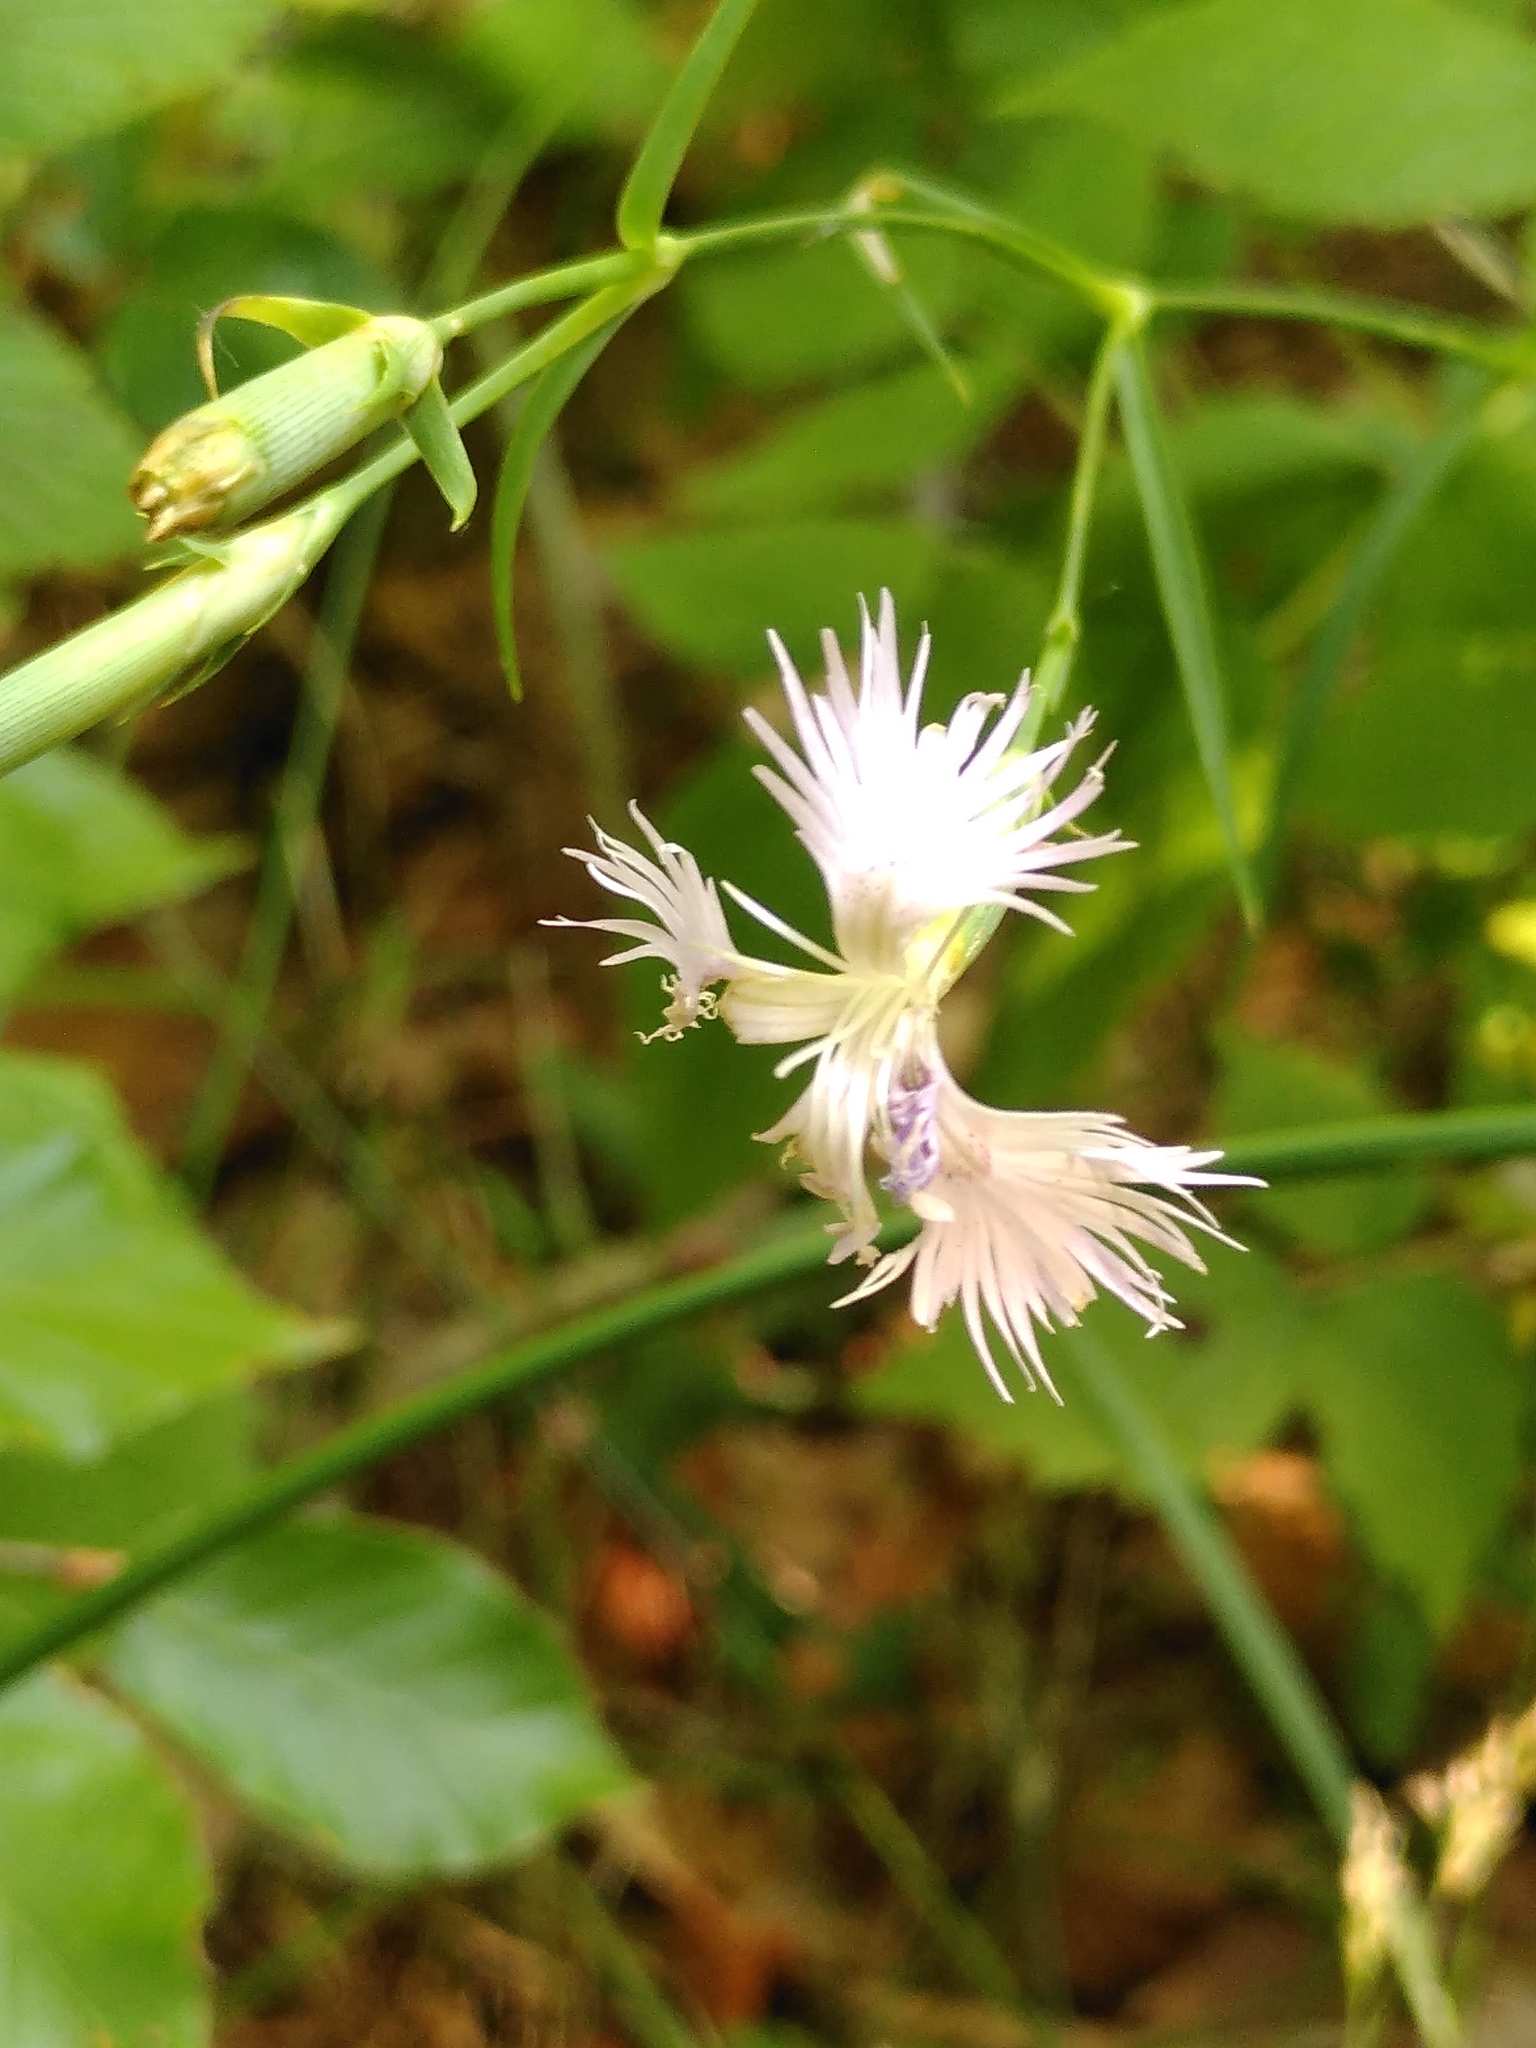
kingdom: Plantae
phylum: Tracheophyta
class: Magnoliopsida
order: Caryophyllales
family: Caryophyllaceae
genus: Dianthus
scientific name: Dianthus hyssopifolius
